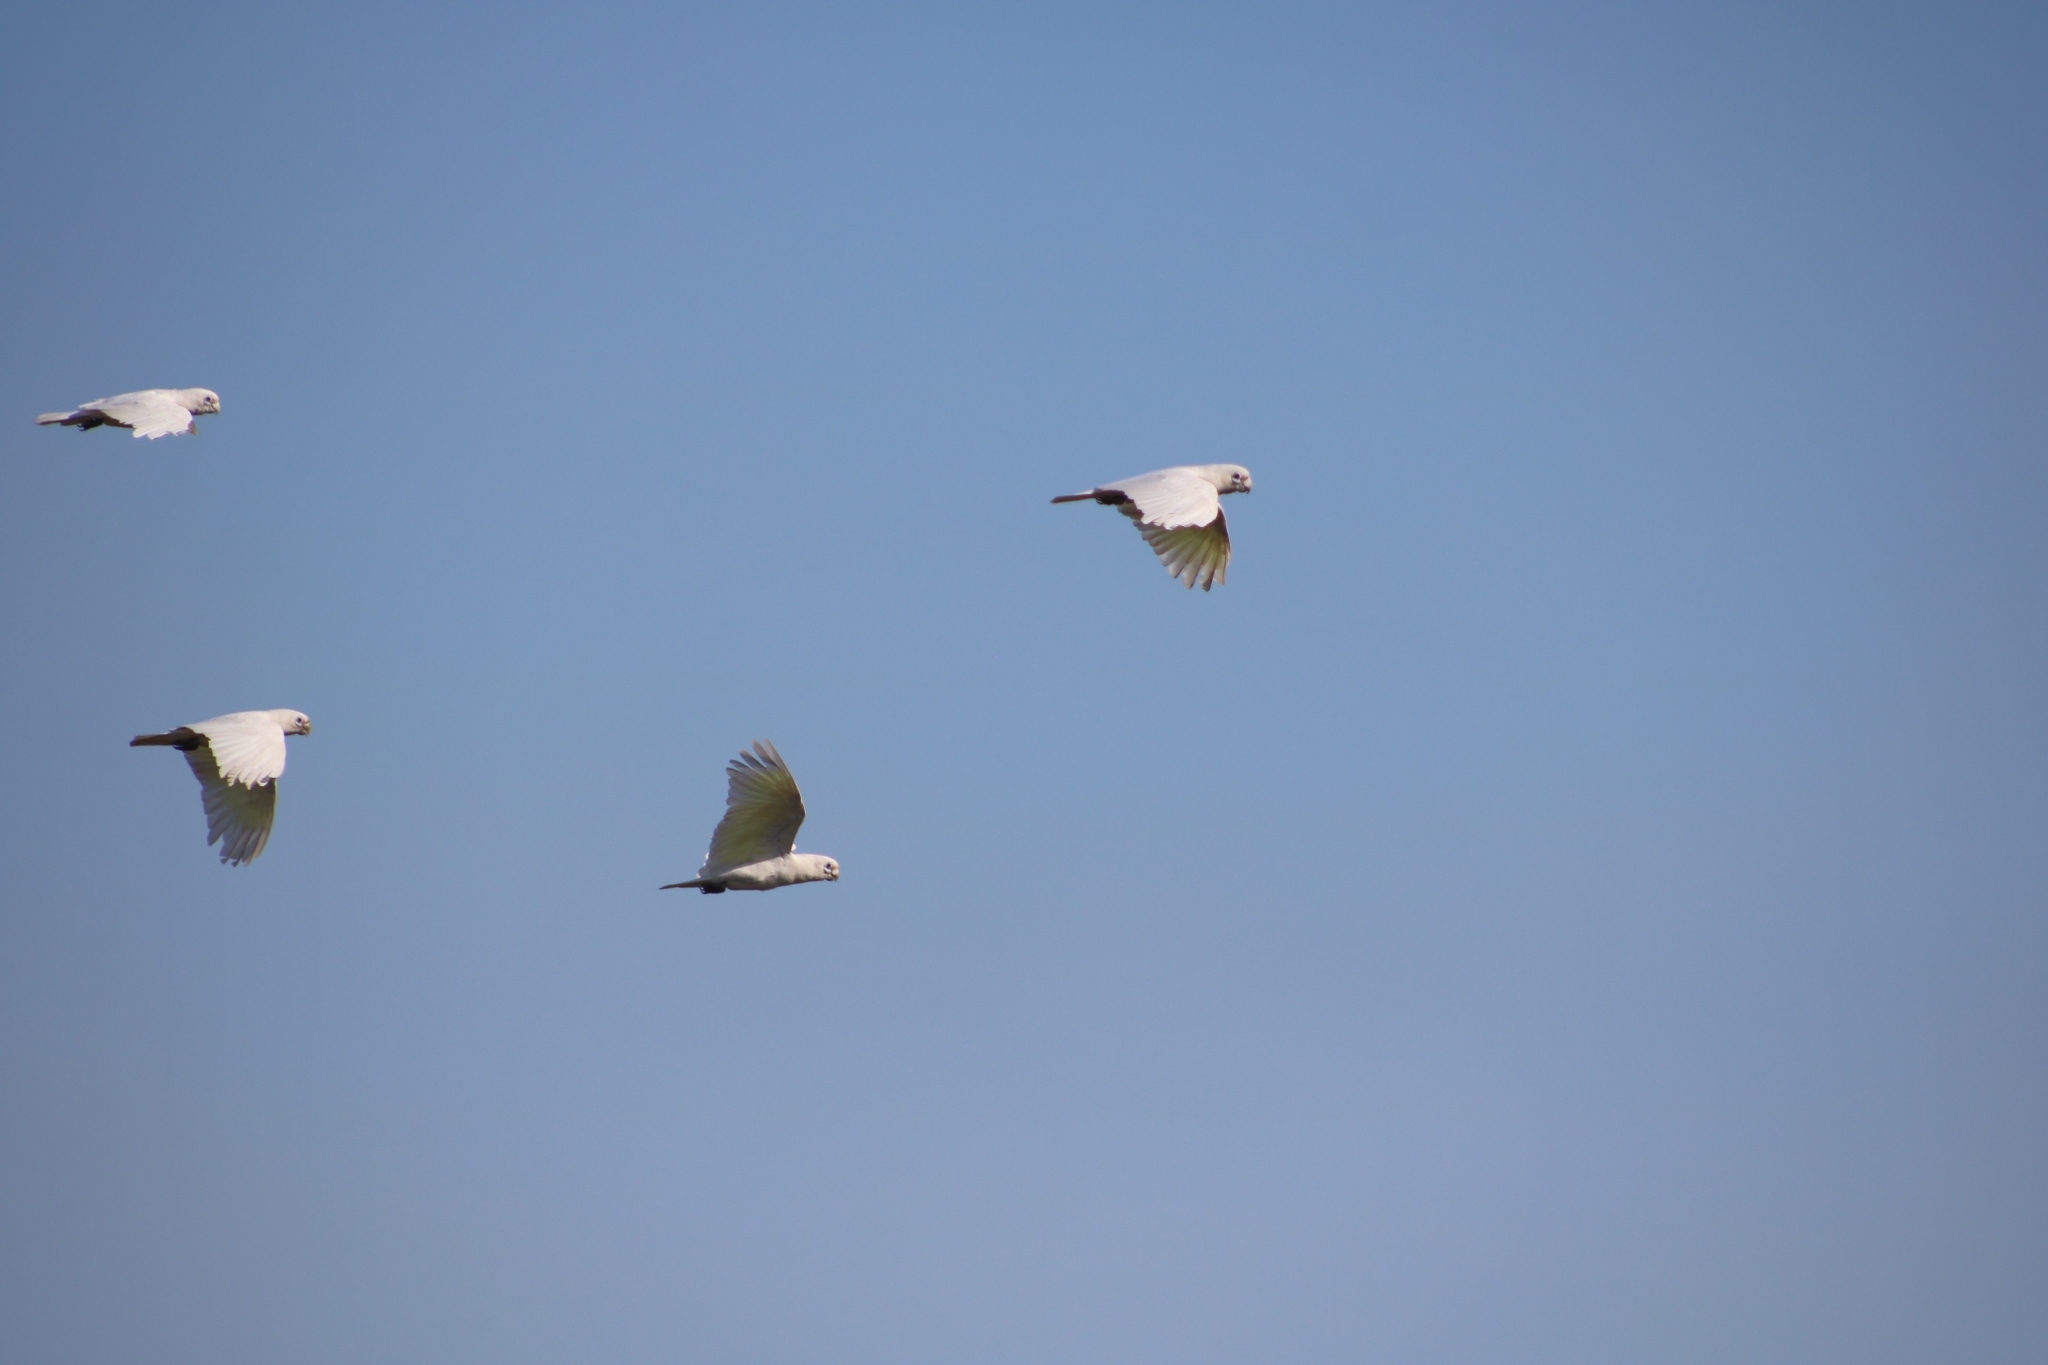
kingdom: Animalia
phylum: Chordata
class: Aves
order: Psittaciformes
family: Psittacidae
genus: Cacatua
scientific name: Cacatua sanguinea
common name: Little corella
